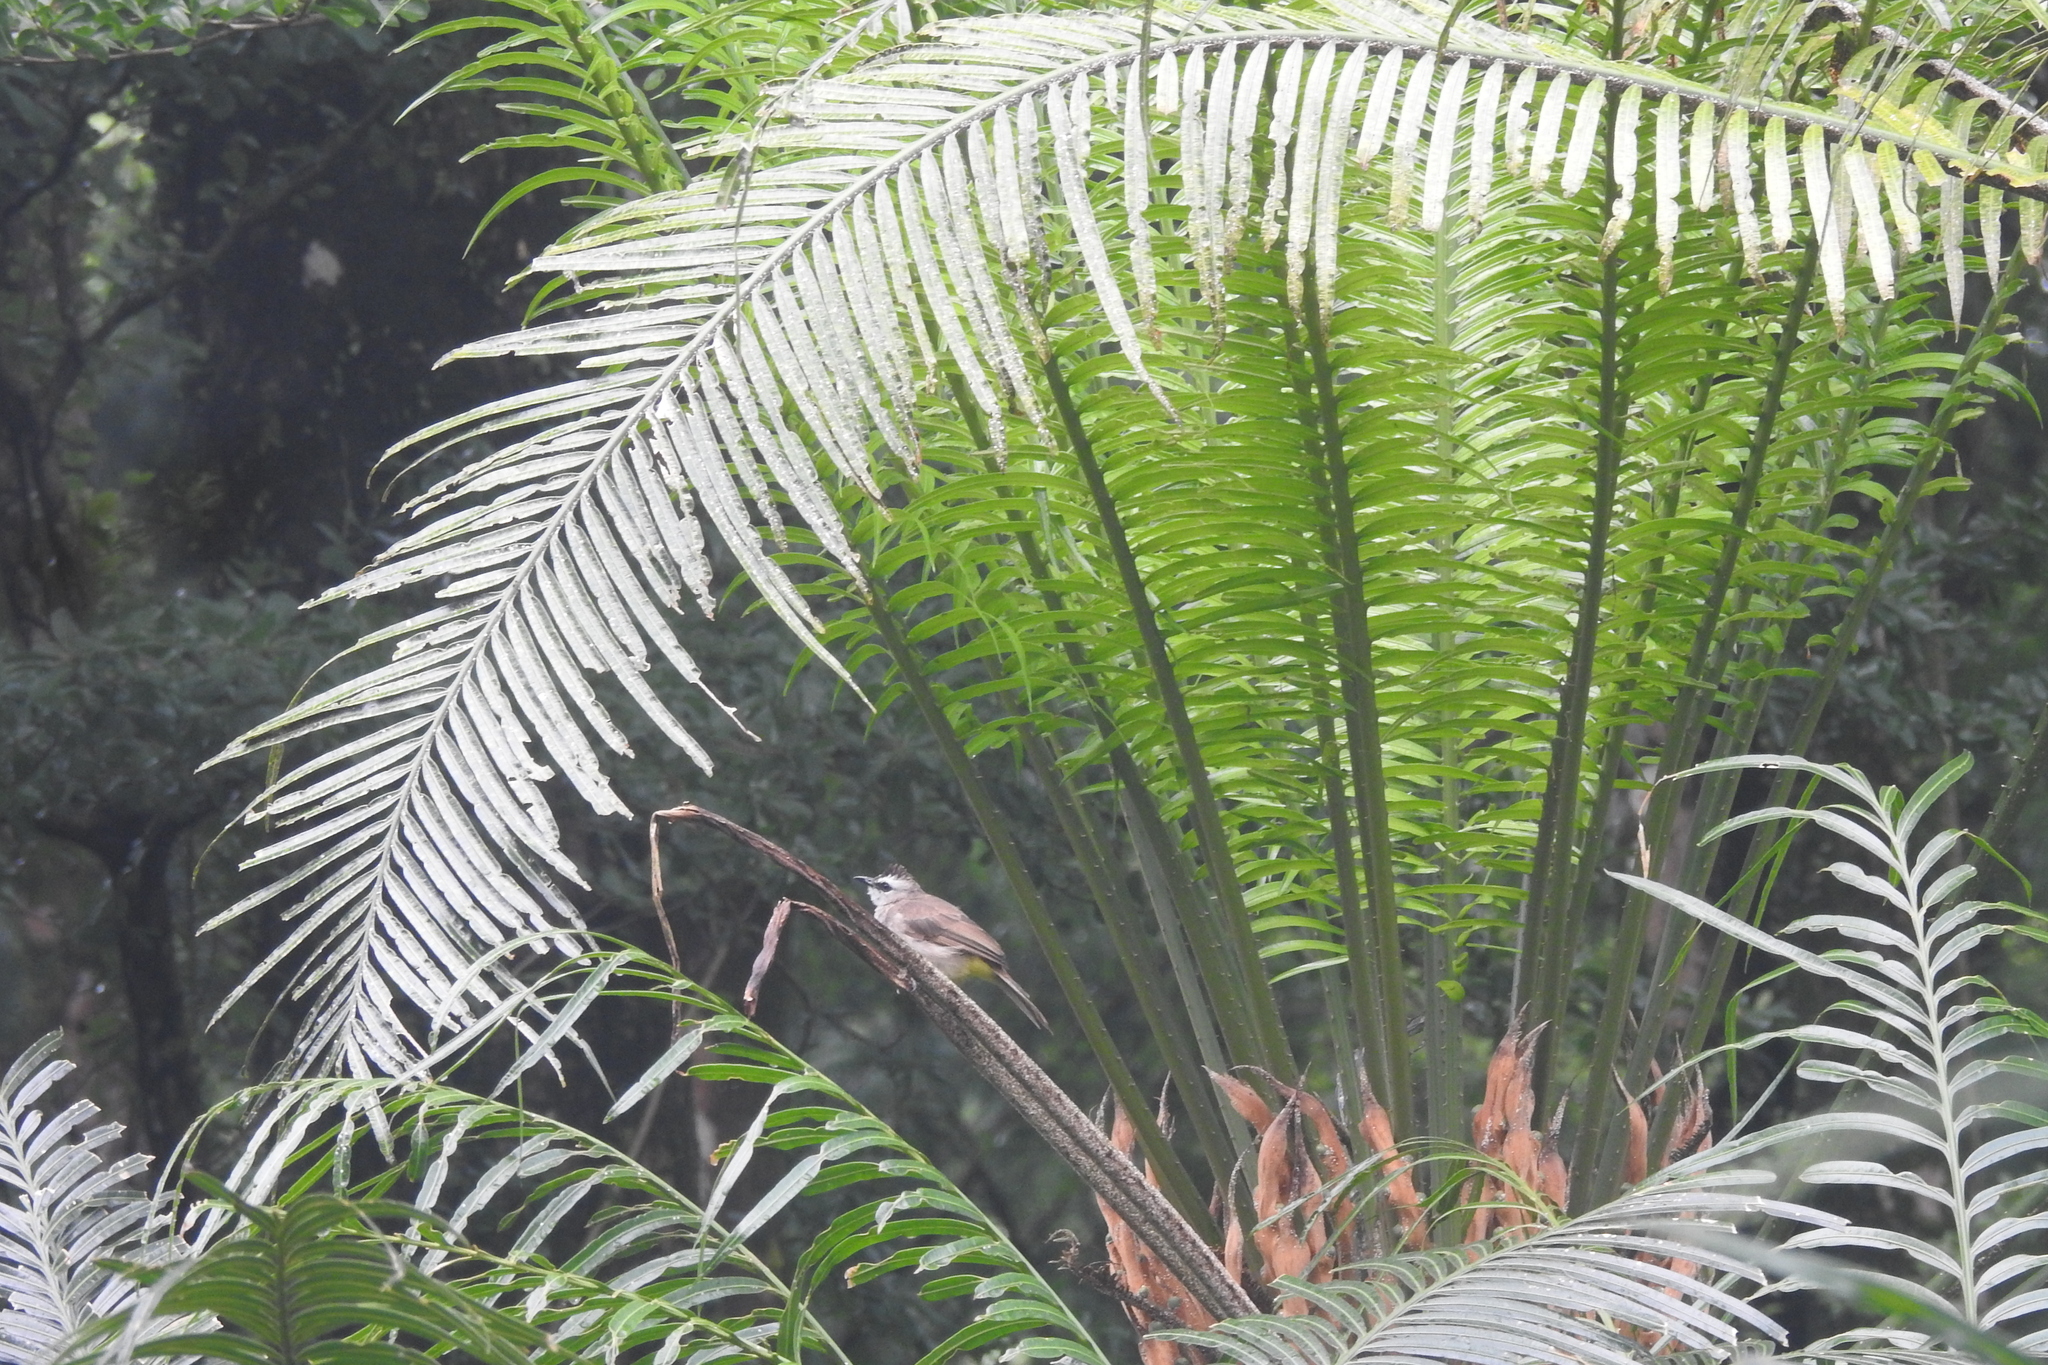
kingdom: Animalia
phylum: Chordata
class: Aves
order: Passeriformes
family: Pycnonotidae
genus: Pycnonotus
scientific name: Pycnonotus goiavier
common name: Yellow-vented bulbul
